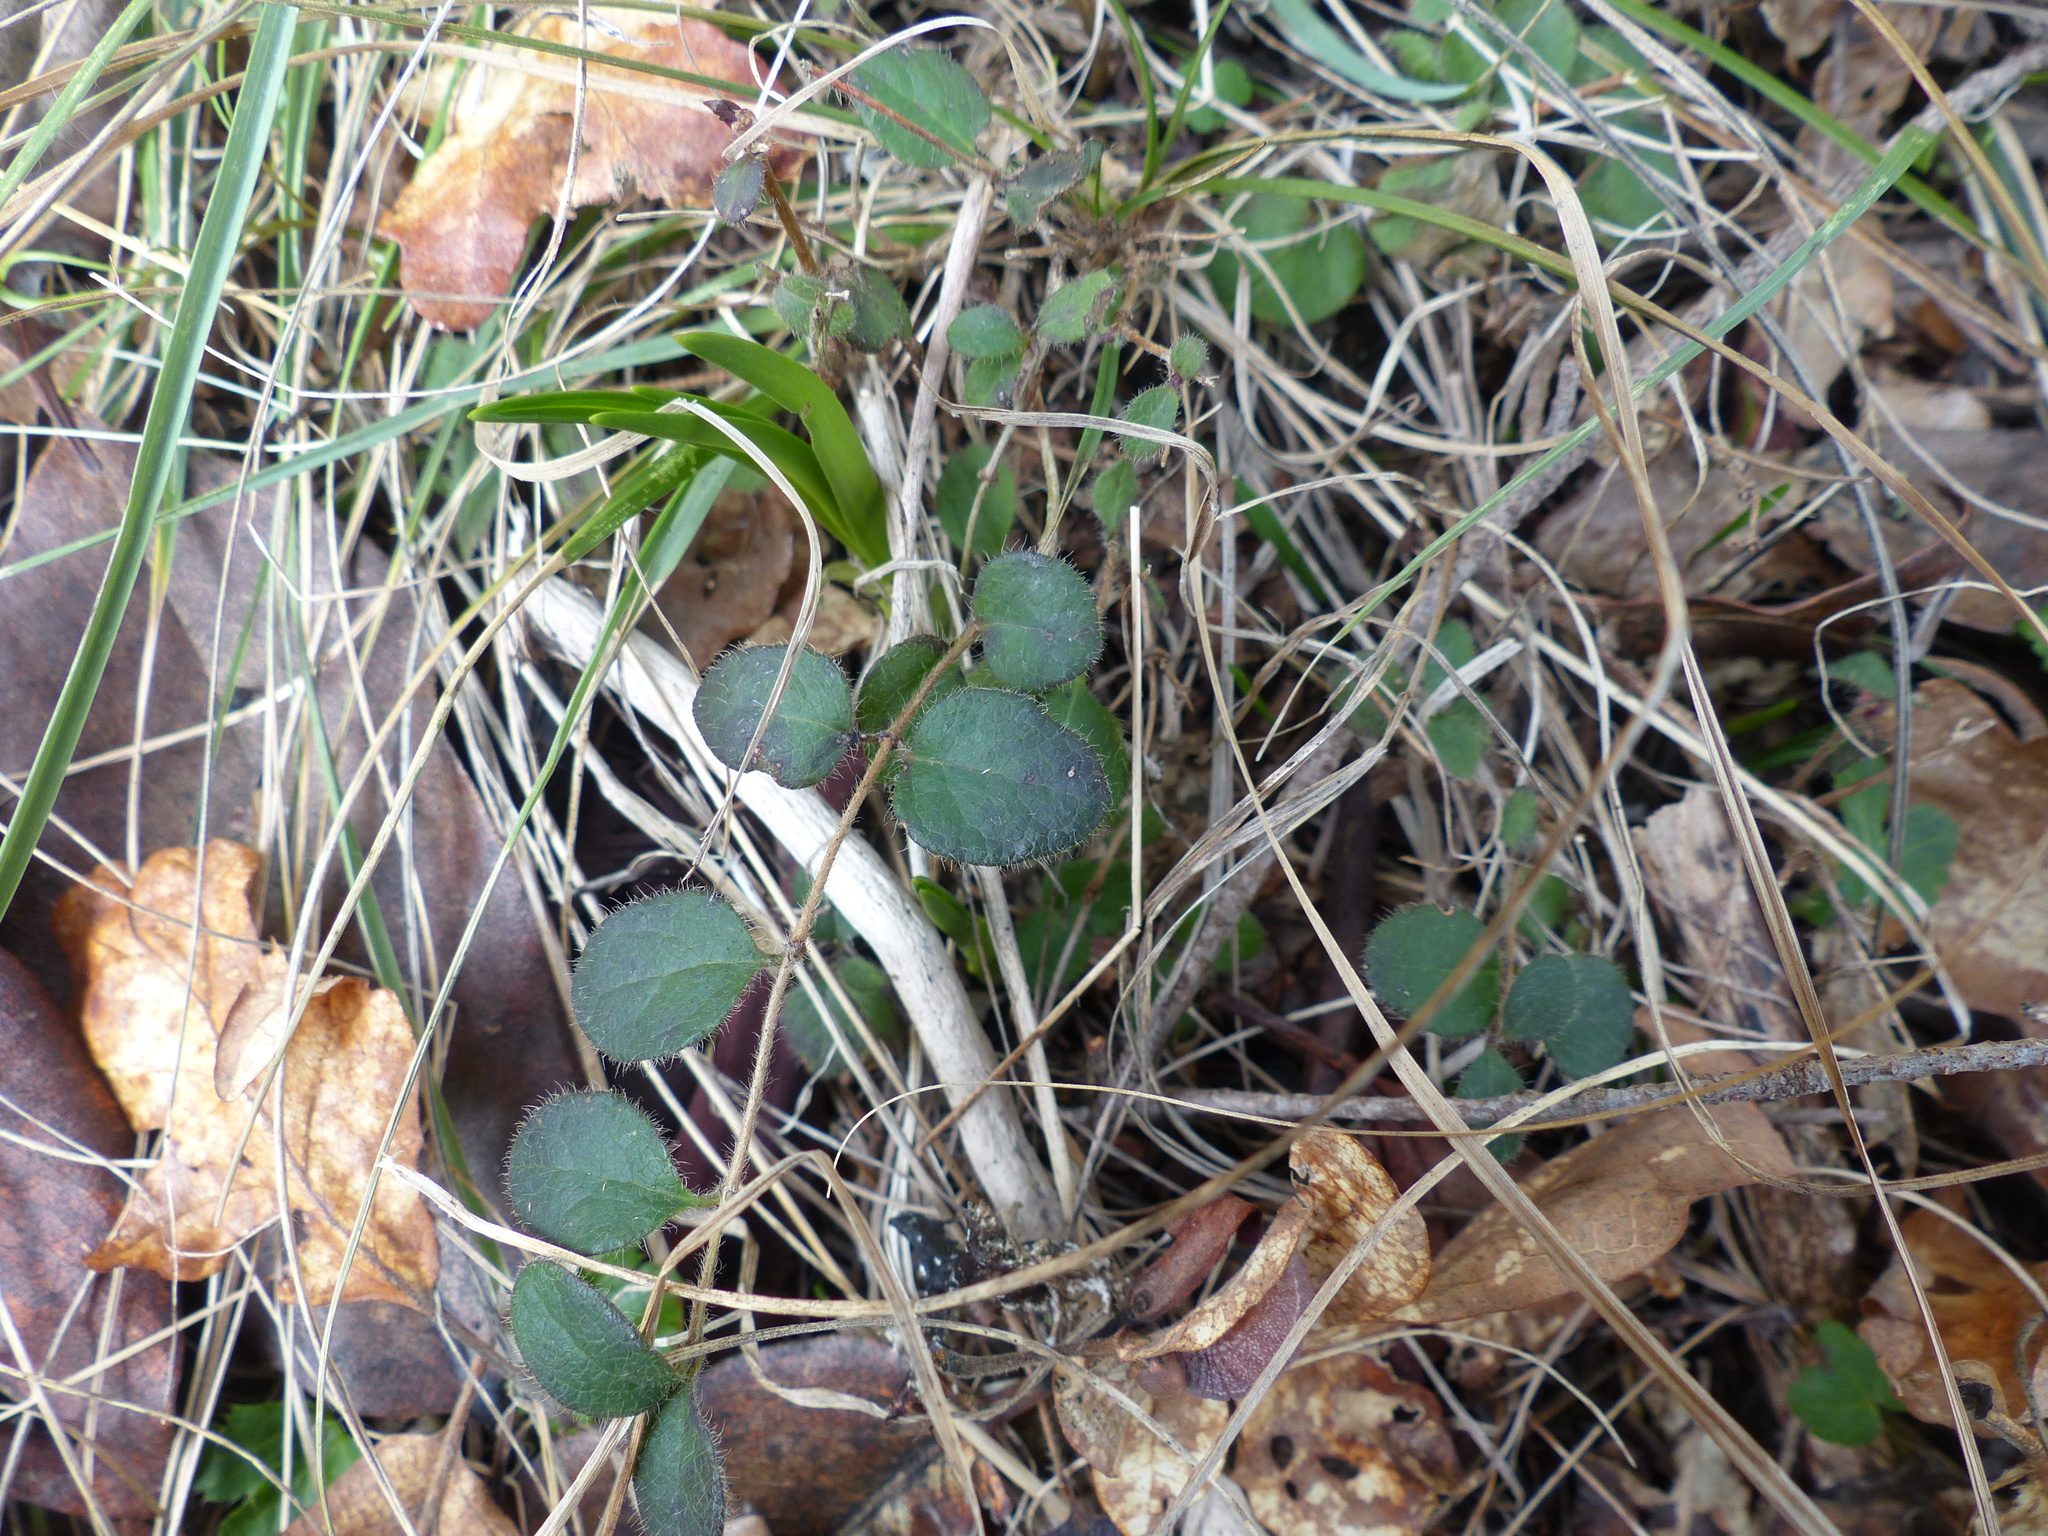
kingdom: Plantae
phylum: Tracheophyta
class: Magnoliopsida
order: Dipsacales
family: Caprifoliaceae
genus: Lonicera
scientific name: Lonicera hispidula
